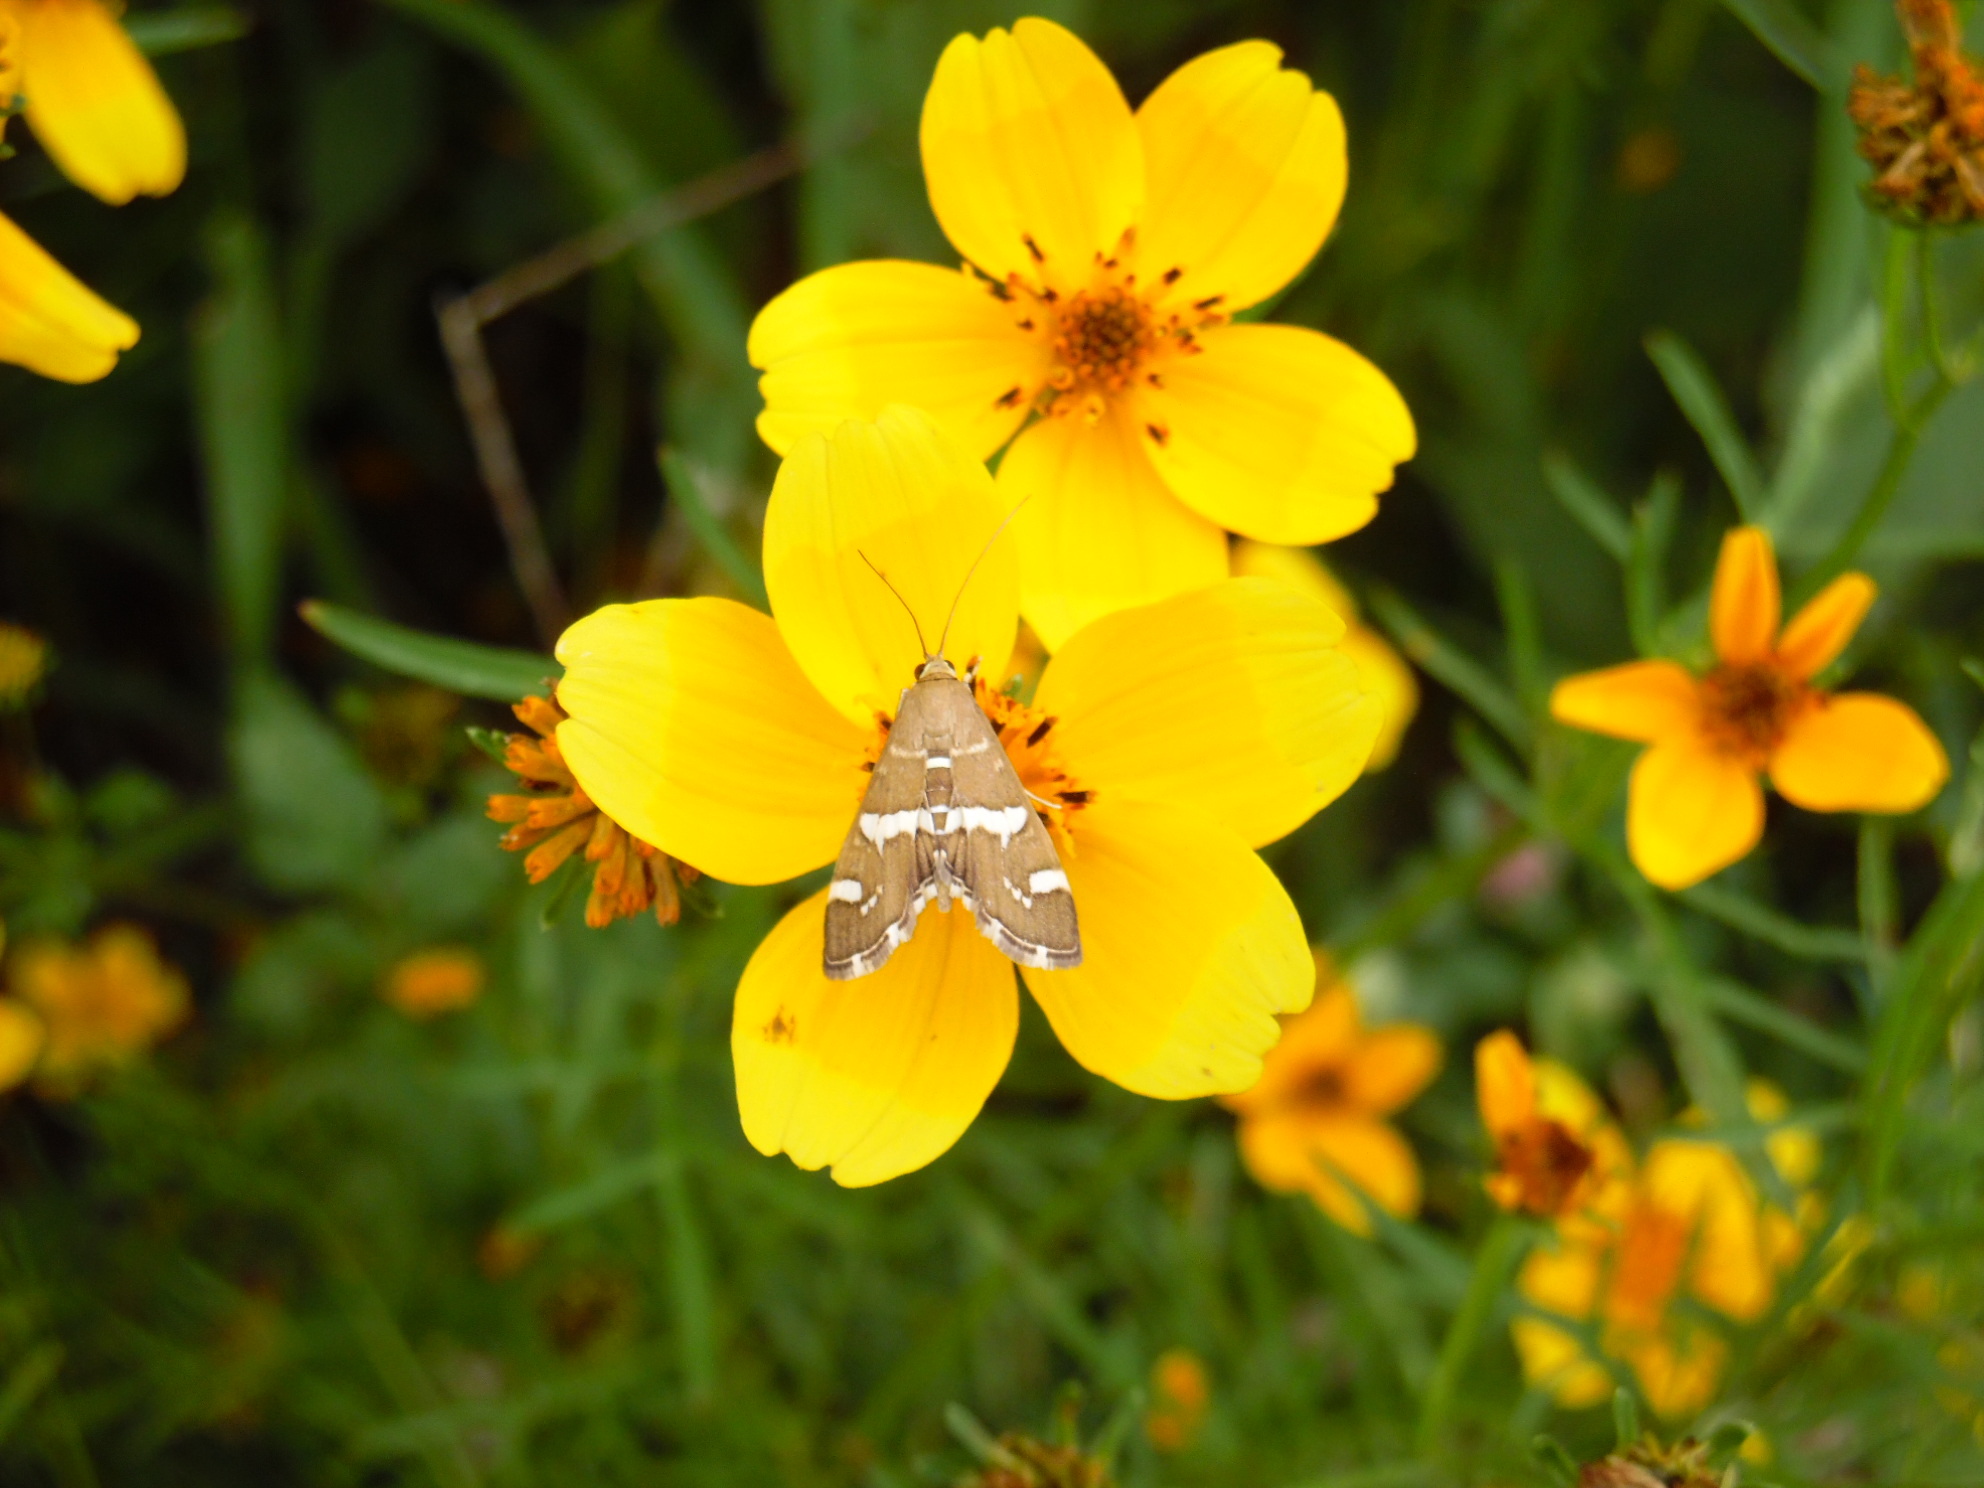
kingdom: Animalia
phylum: Arthropoda
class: Insecta
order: Lepidoptera
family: Crambidae
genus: Spoladea
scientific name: Spoladea recurvalis
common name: Beet webworm moth
